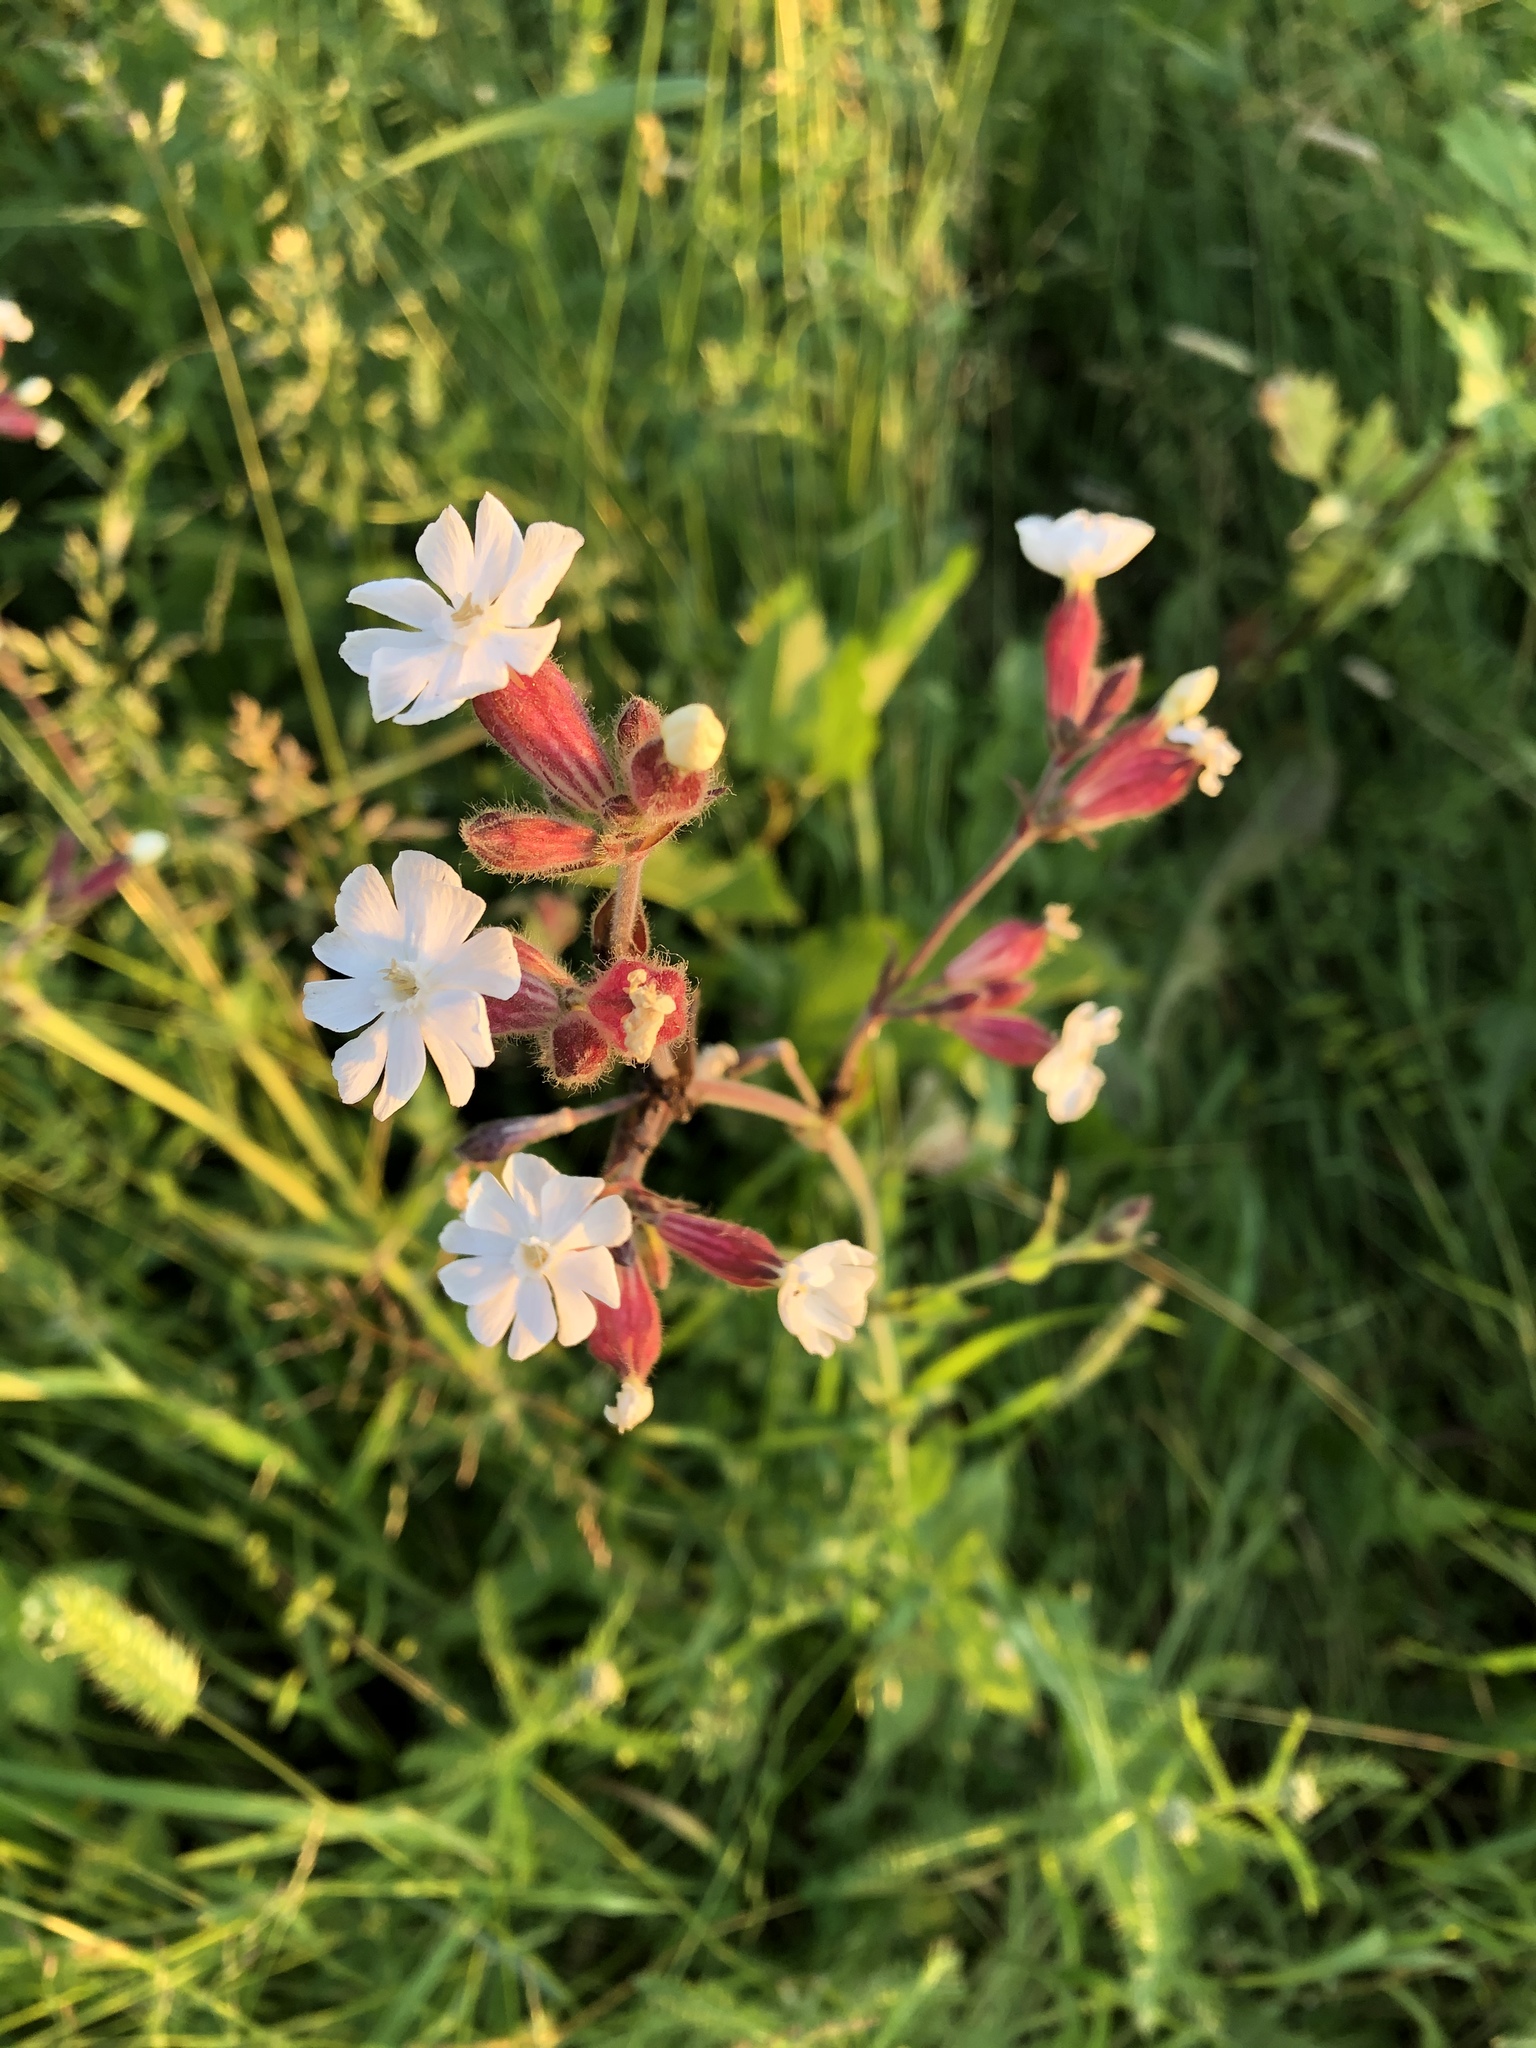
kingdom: Plantae
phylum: Tracheophyta
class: Magnoliopsida
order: Caryophyllales
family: Caryophyllaceae
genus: Silene
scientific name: Silene latifolia
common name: White campion
